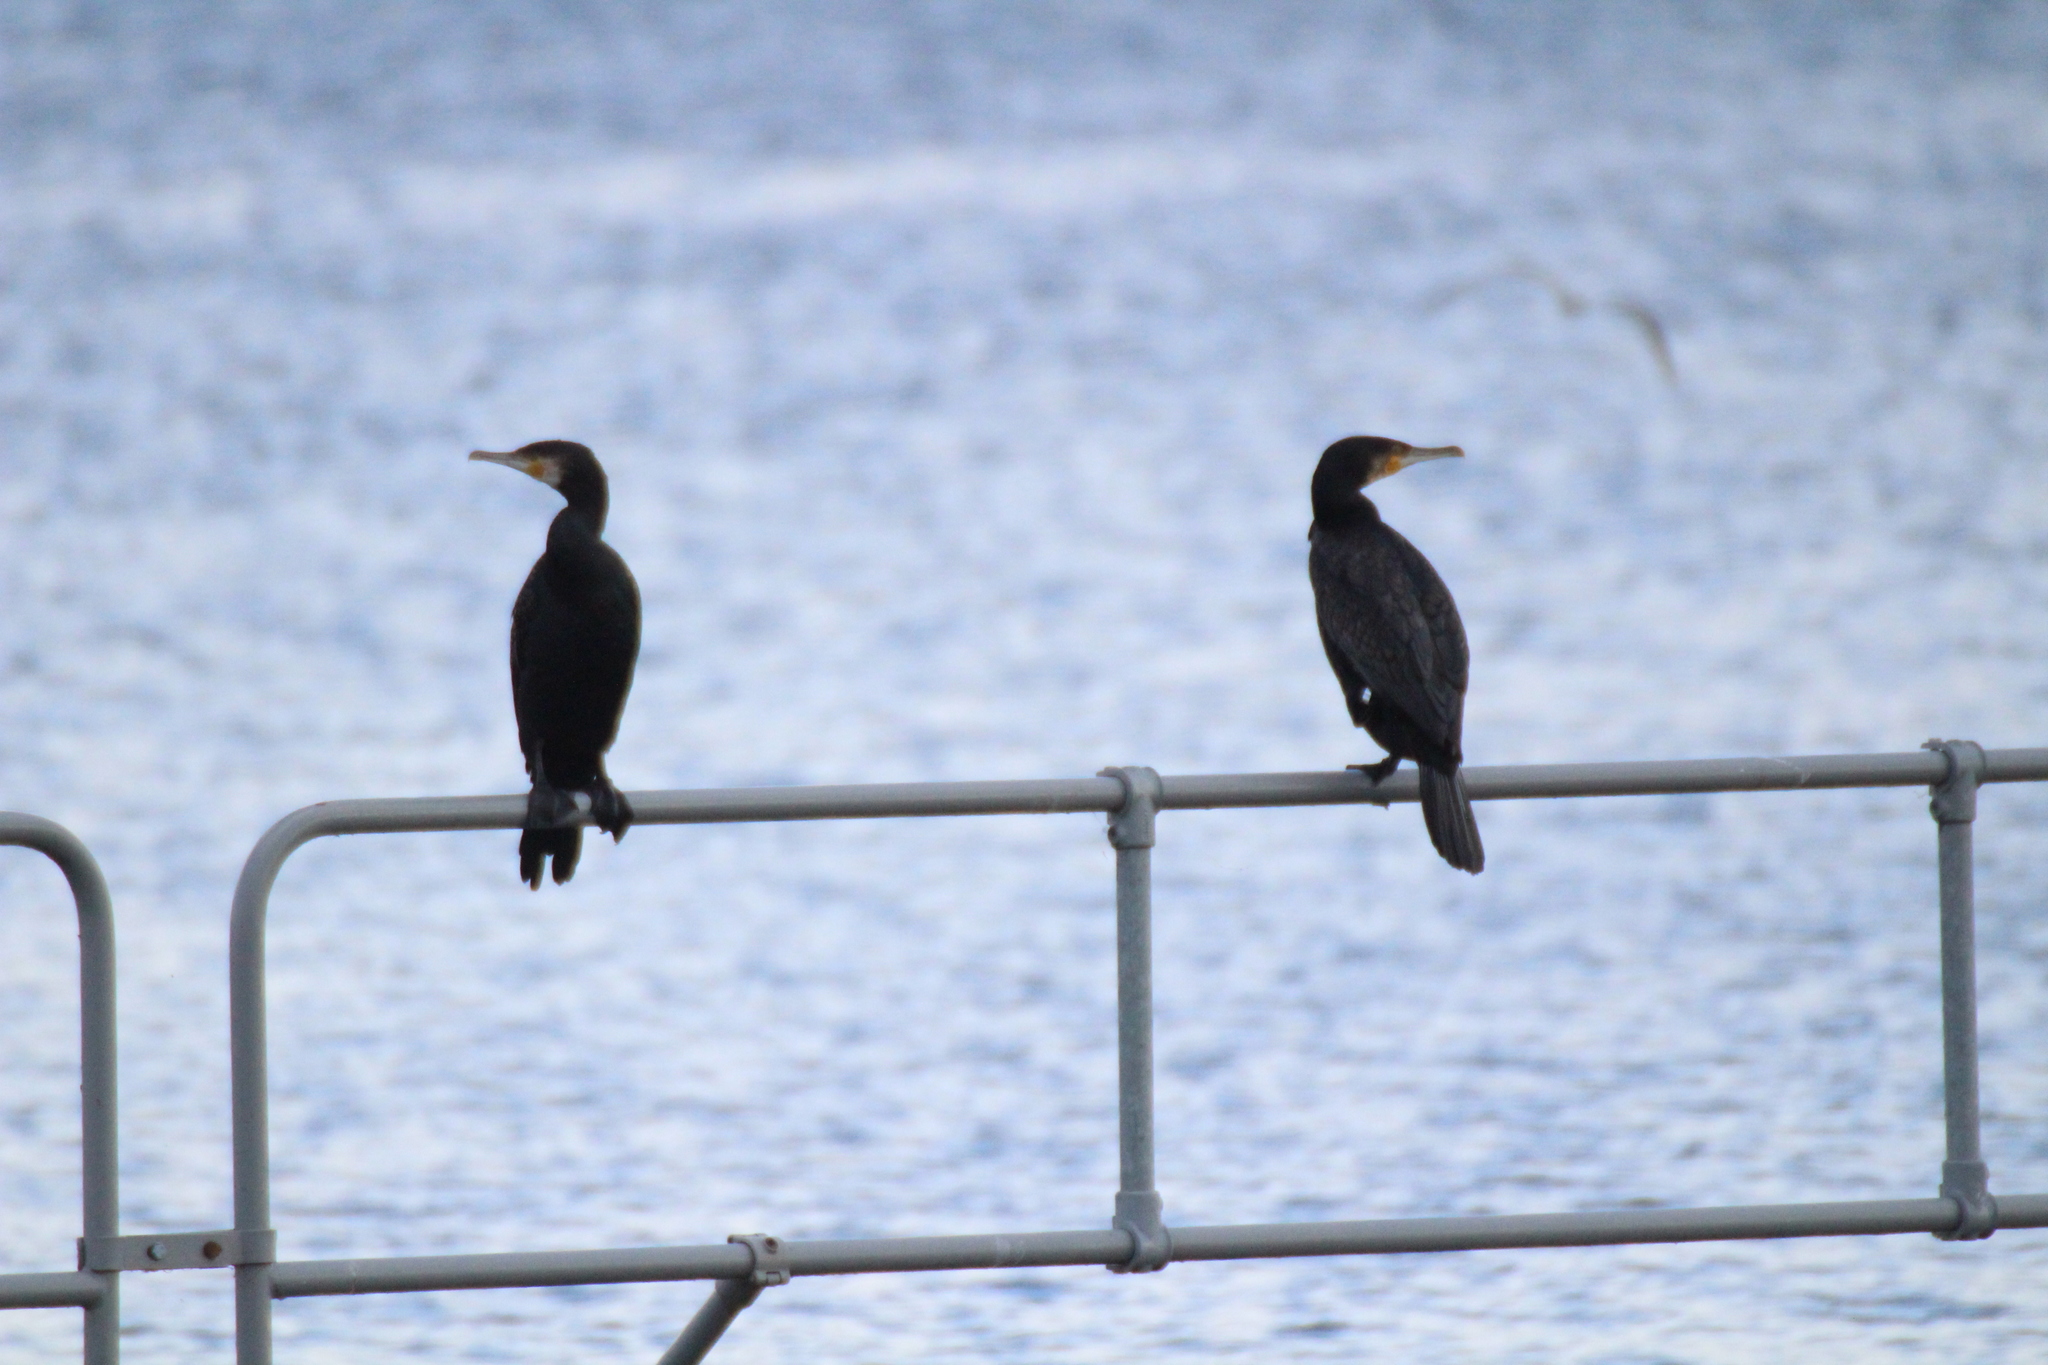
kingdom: Animalia
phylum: Chordata
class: Aves
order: Suliformes
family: Phalacrocoracidae
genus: Phalacrocorax
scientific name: Phalacrocorax carbo
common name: Great cormorant
